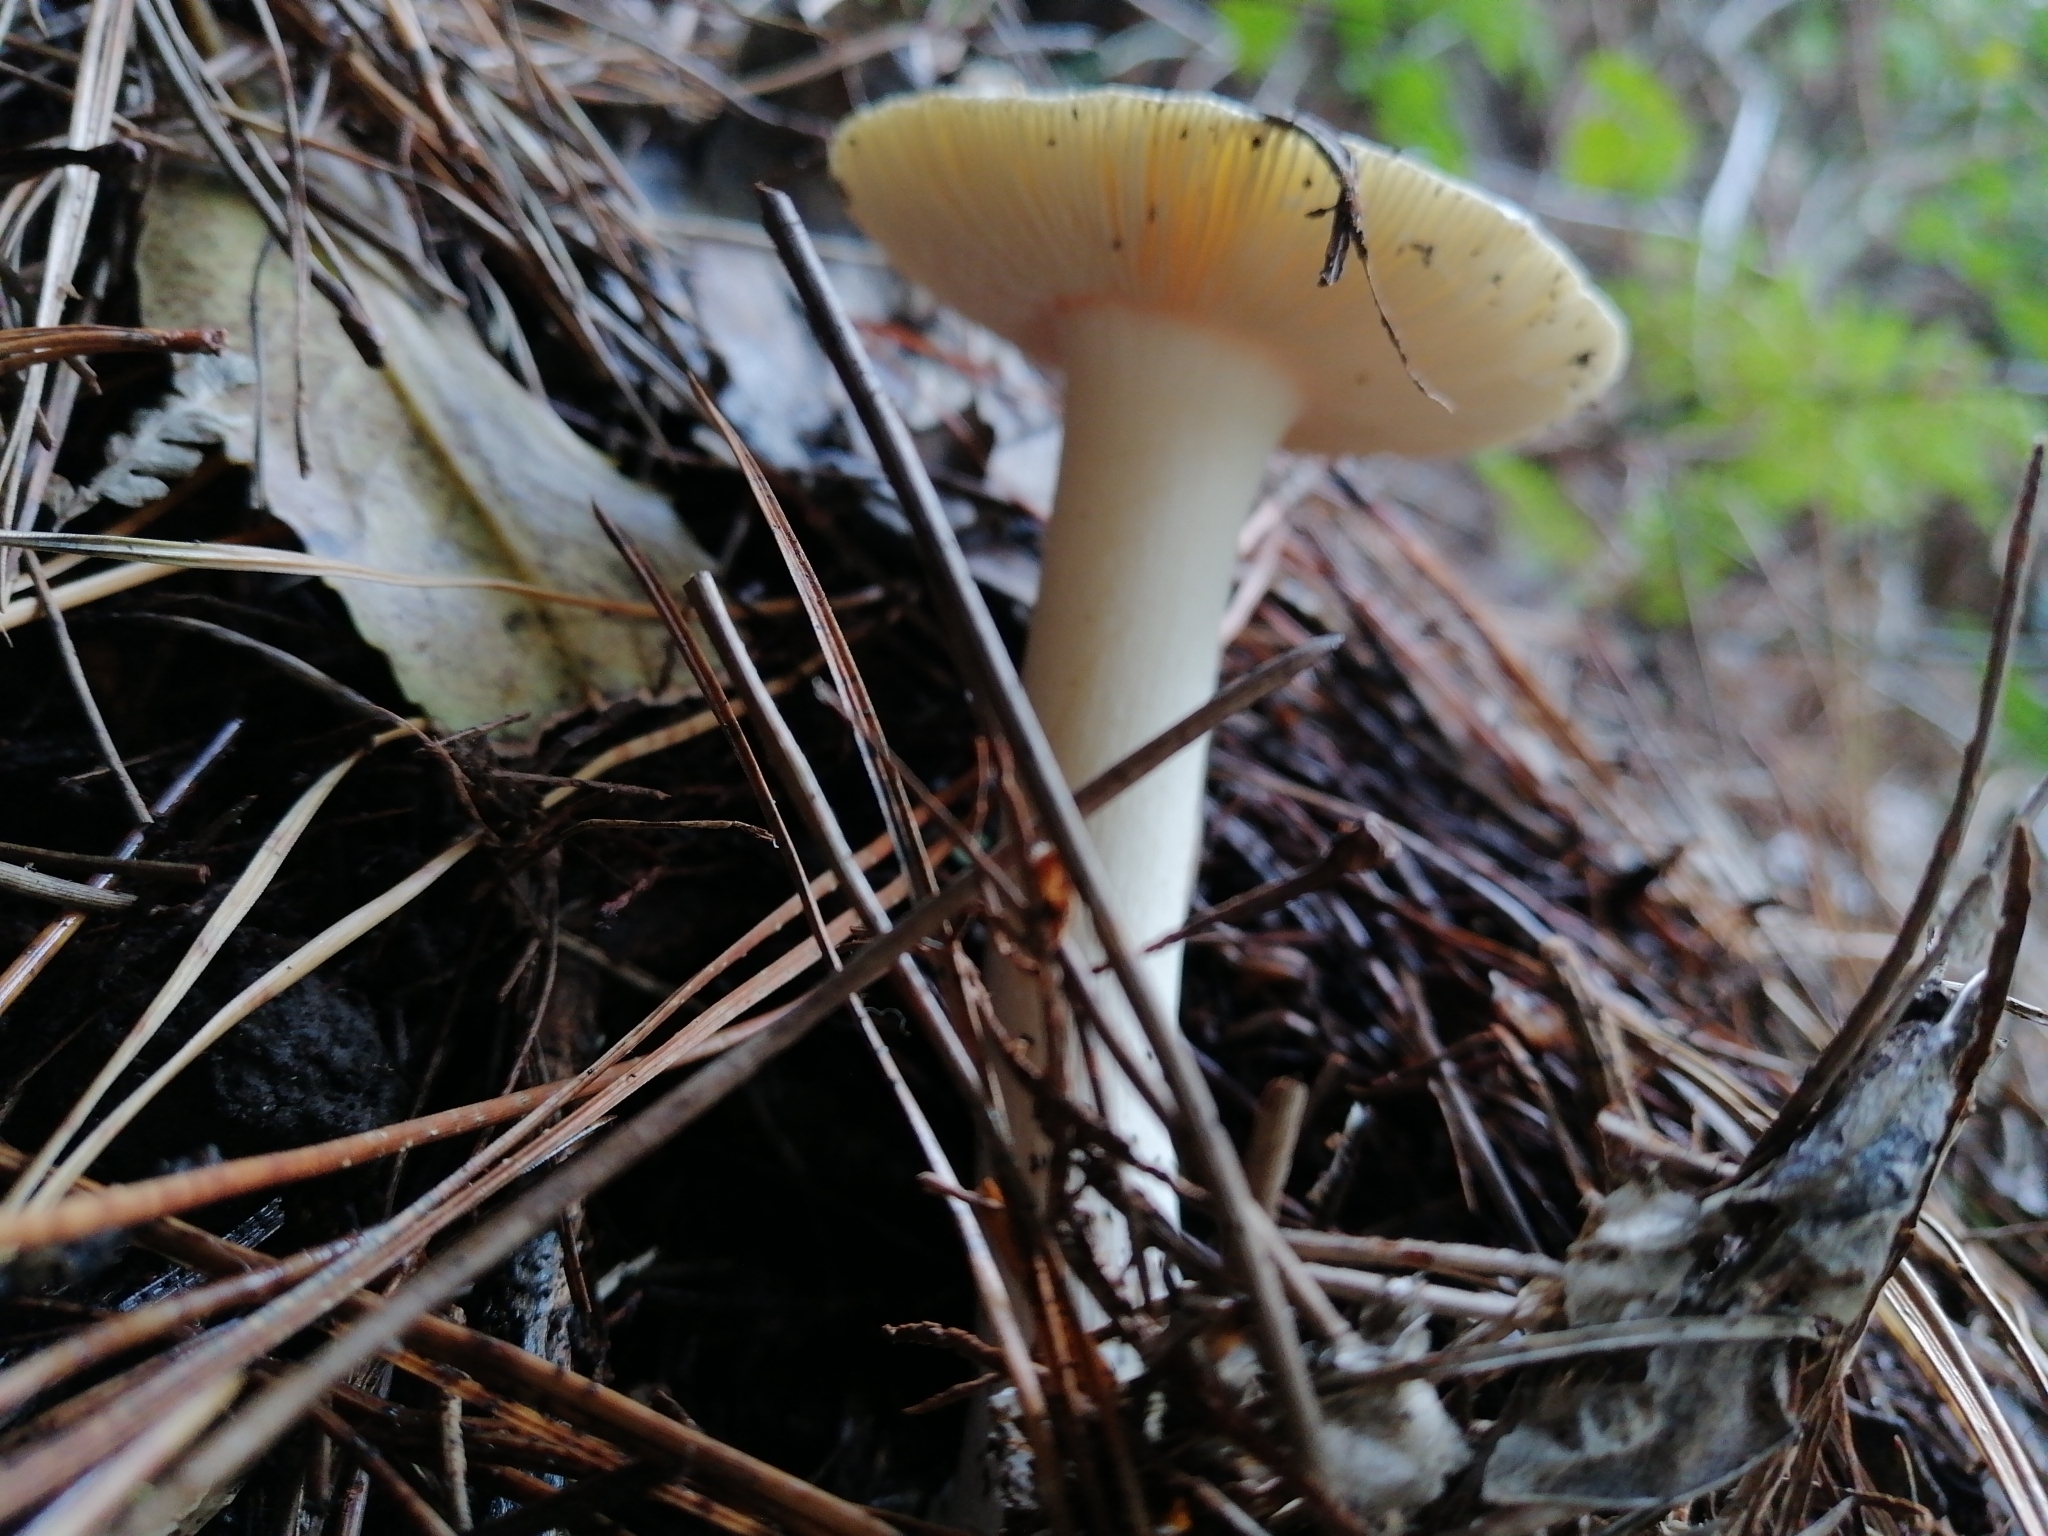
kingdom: Fungi
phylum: Basidiomycota
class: Agaricomycetes
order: Agaricales
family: Amanitaceae
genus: Amanita
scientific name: Amanita gemmata
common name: Jewelled amanita
